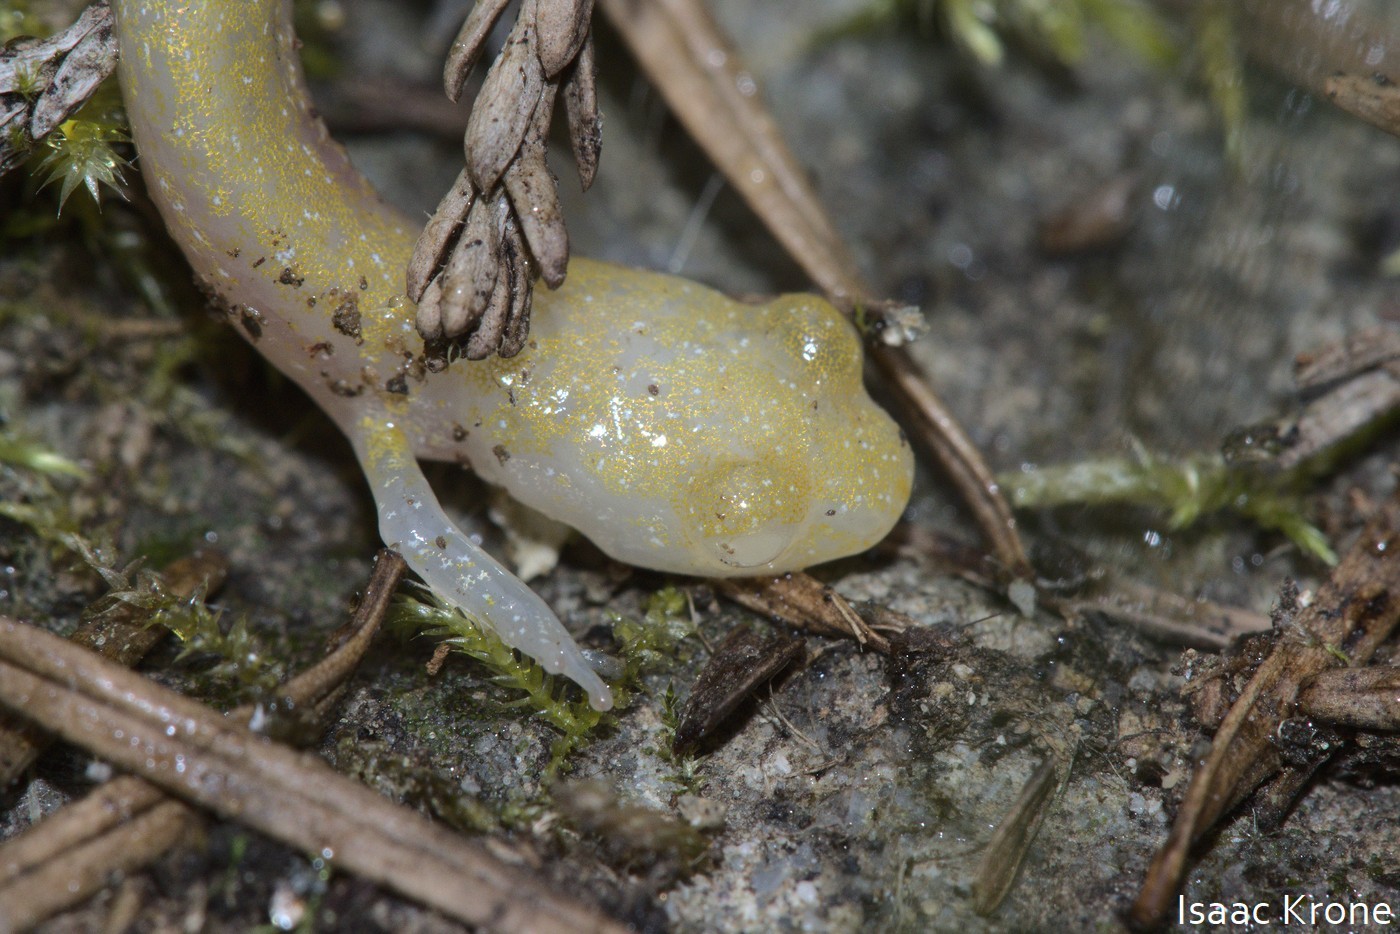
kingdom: Animalia
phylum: Chordata
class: Amphibia
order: Caudata
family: Plethodontidae
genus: Aneides
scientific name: Aneides flavipunctatus
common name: Black salamander
